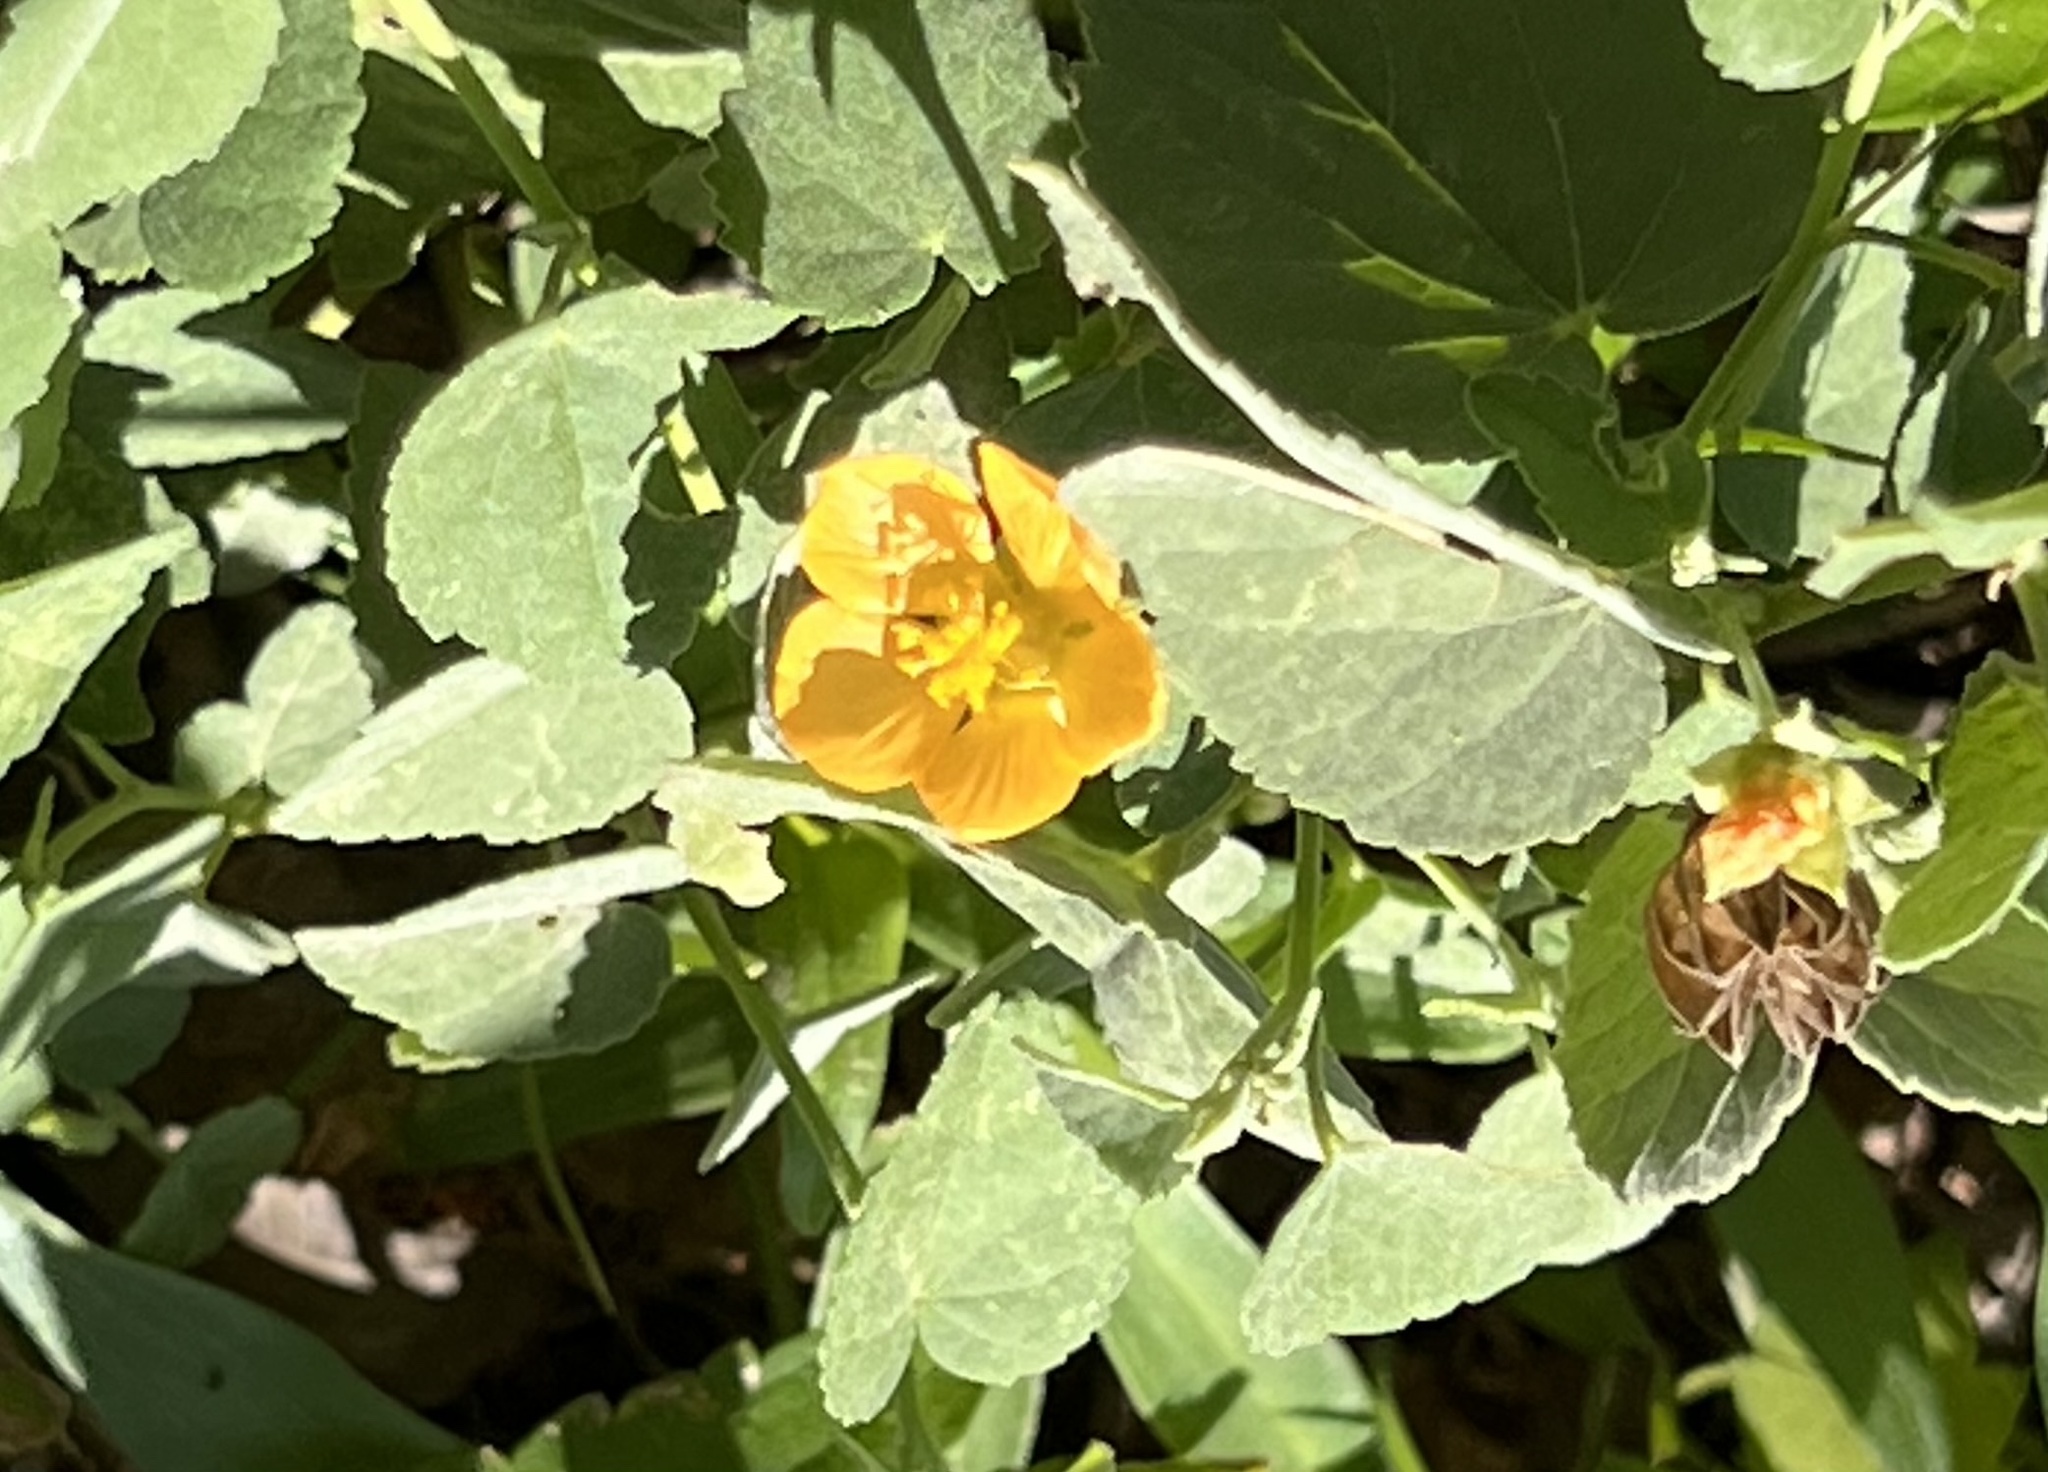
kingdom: Plantae
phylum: Tracheophyta
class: Magnoliopsida
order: Malvales
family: Malvaceae
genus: Abutilon
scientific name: Abutilon fruticosum
